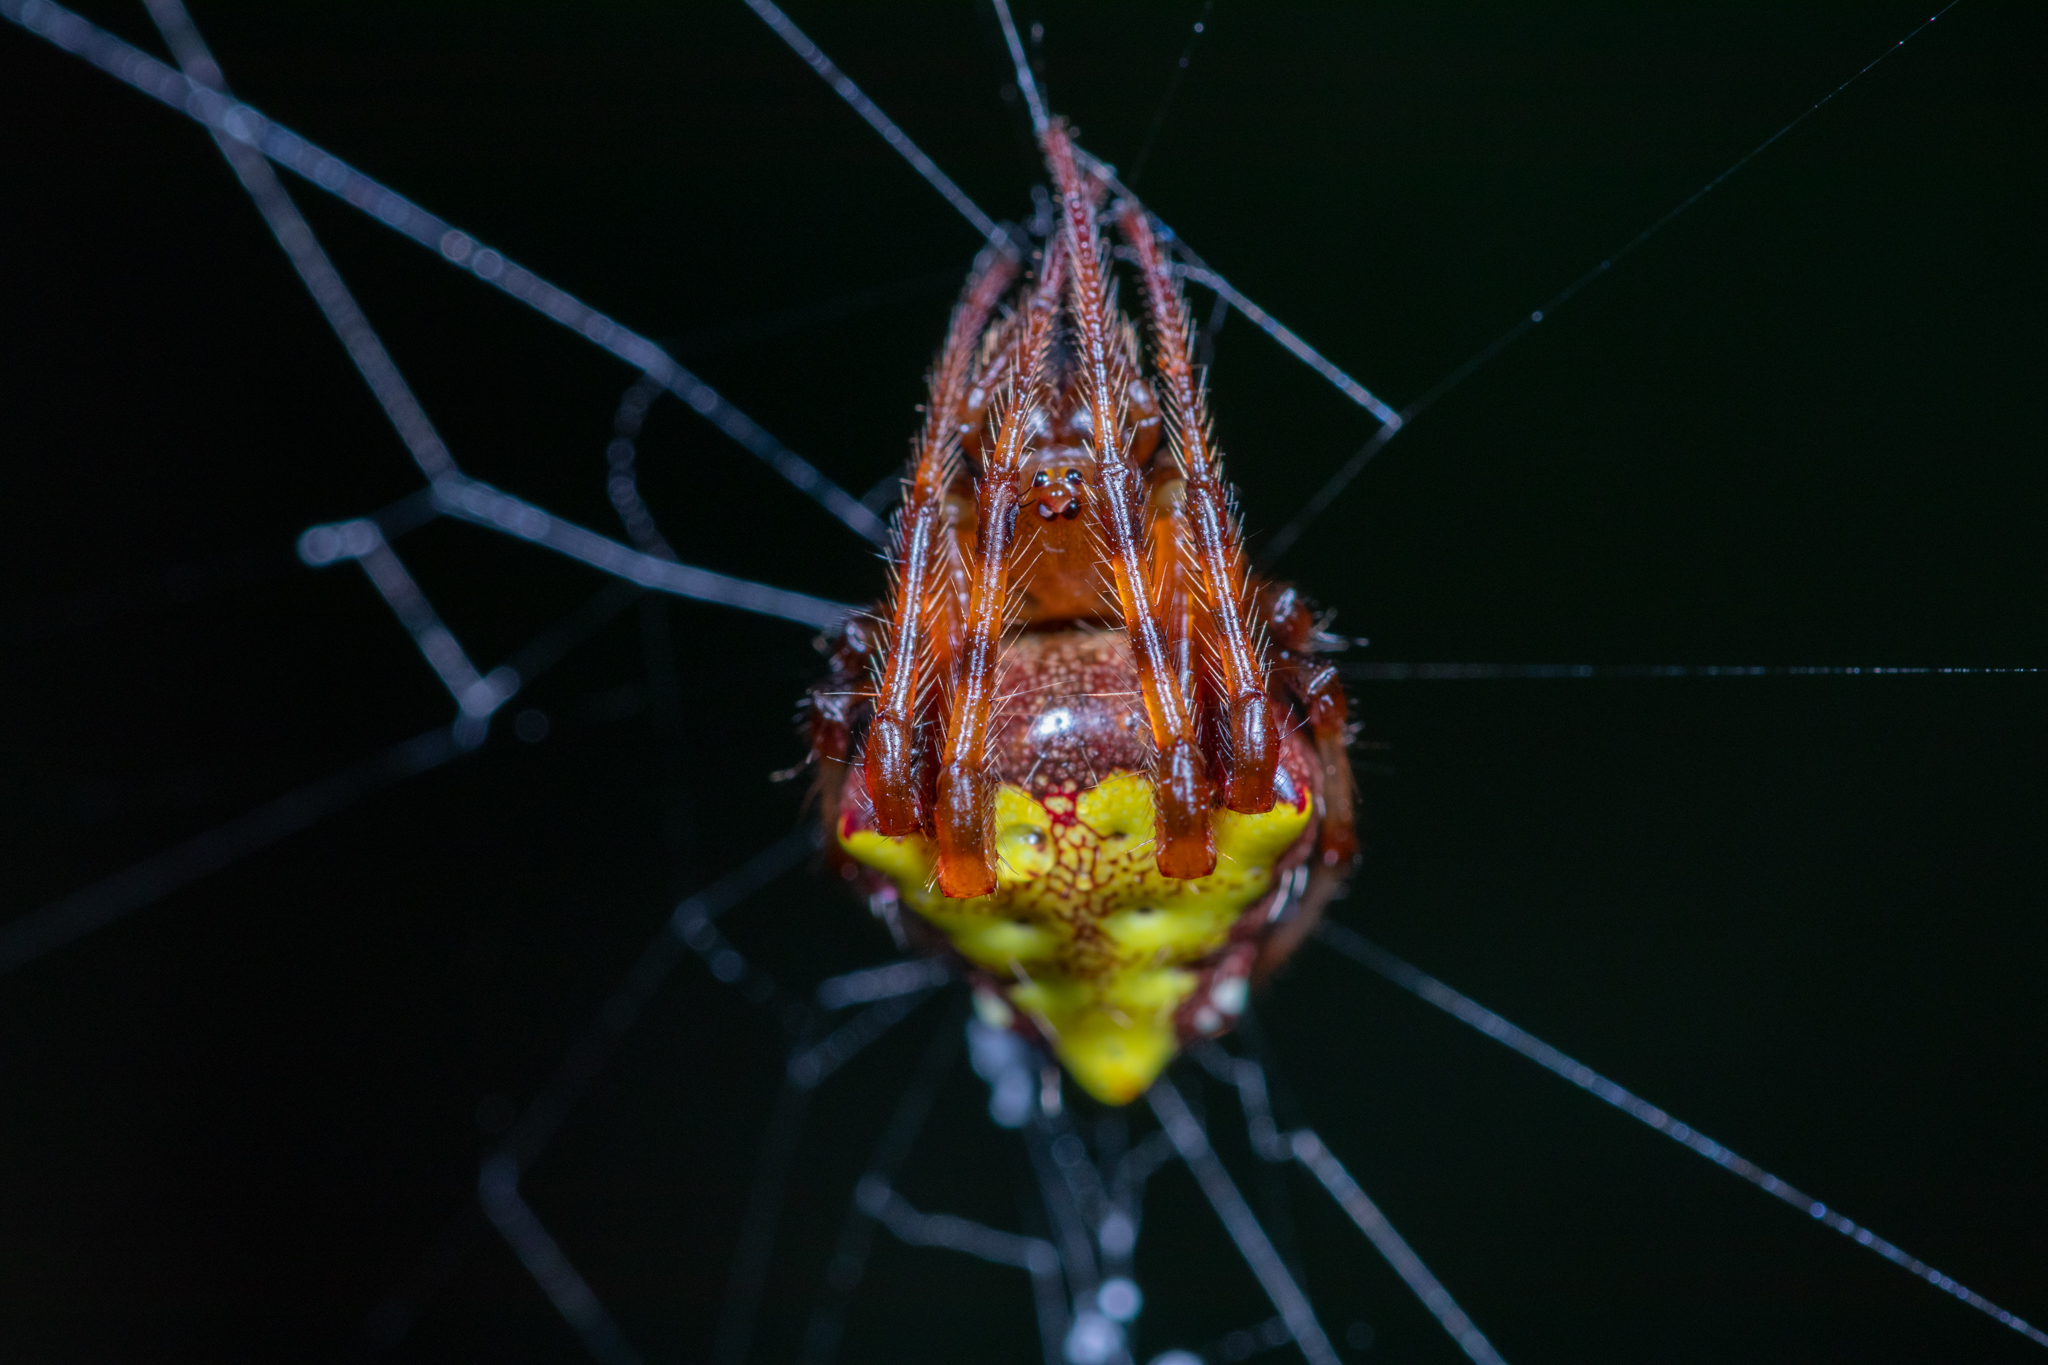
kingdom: Animalia
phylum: Arthropoda
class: Arachnida
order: Araneae
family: Araneidae
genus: Verrucosa
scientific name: Verrucosa arenata
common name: Orb weavers
